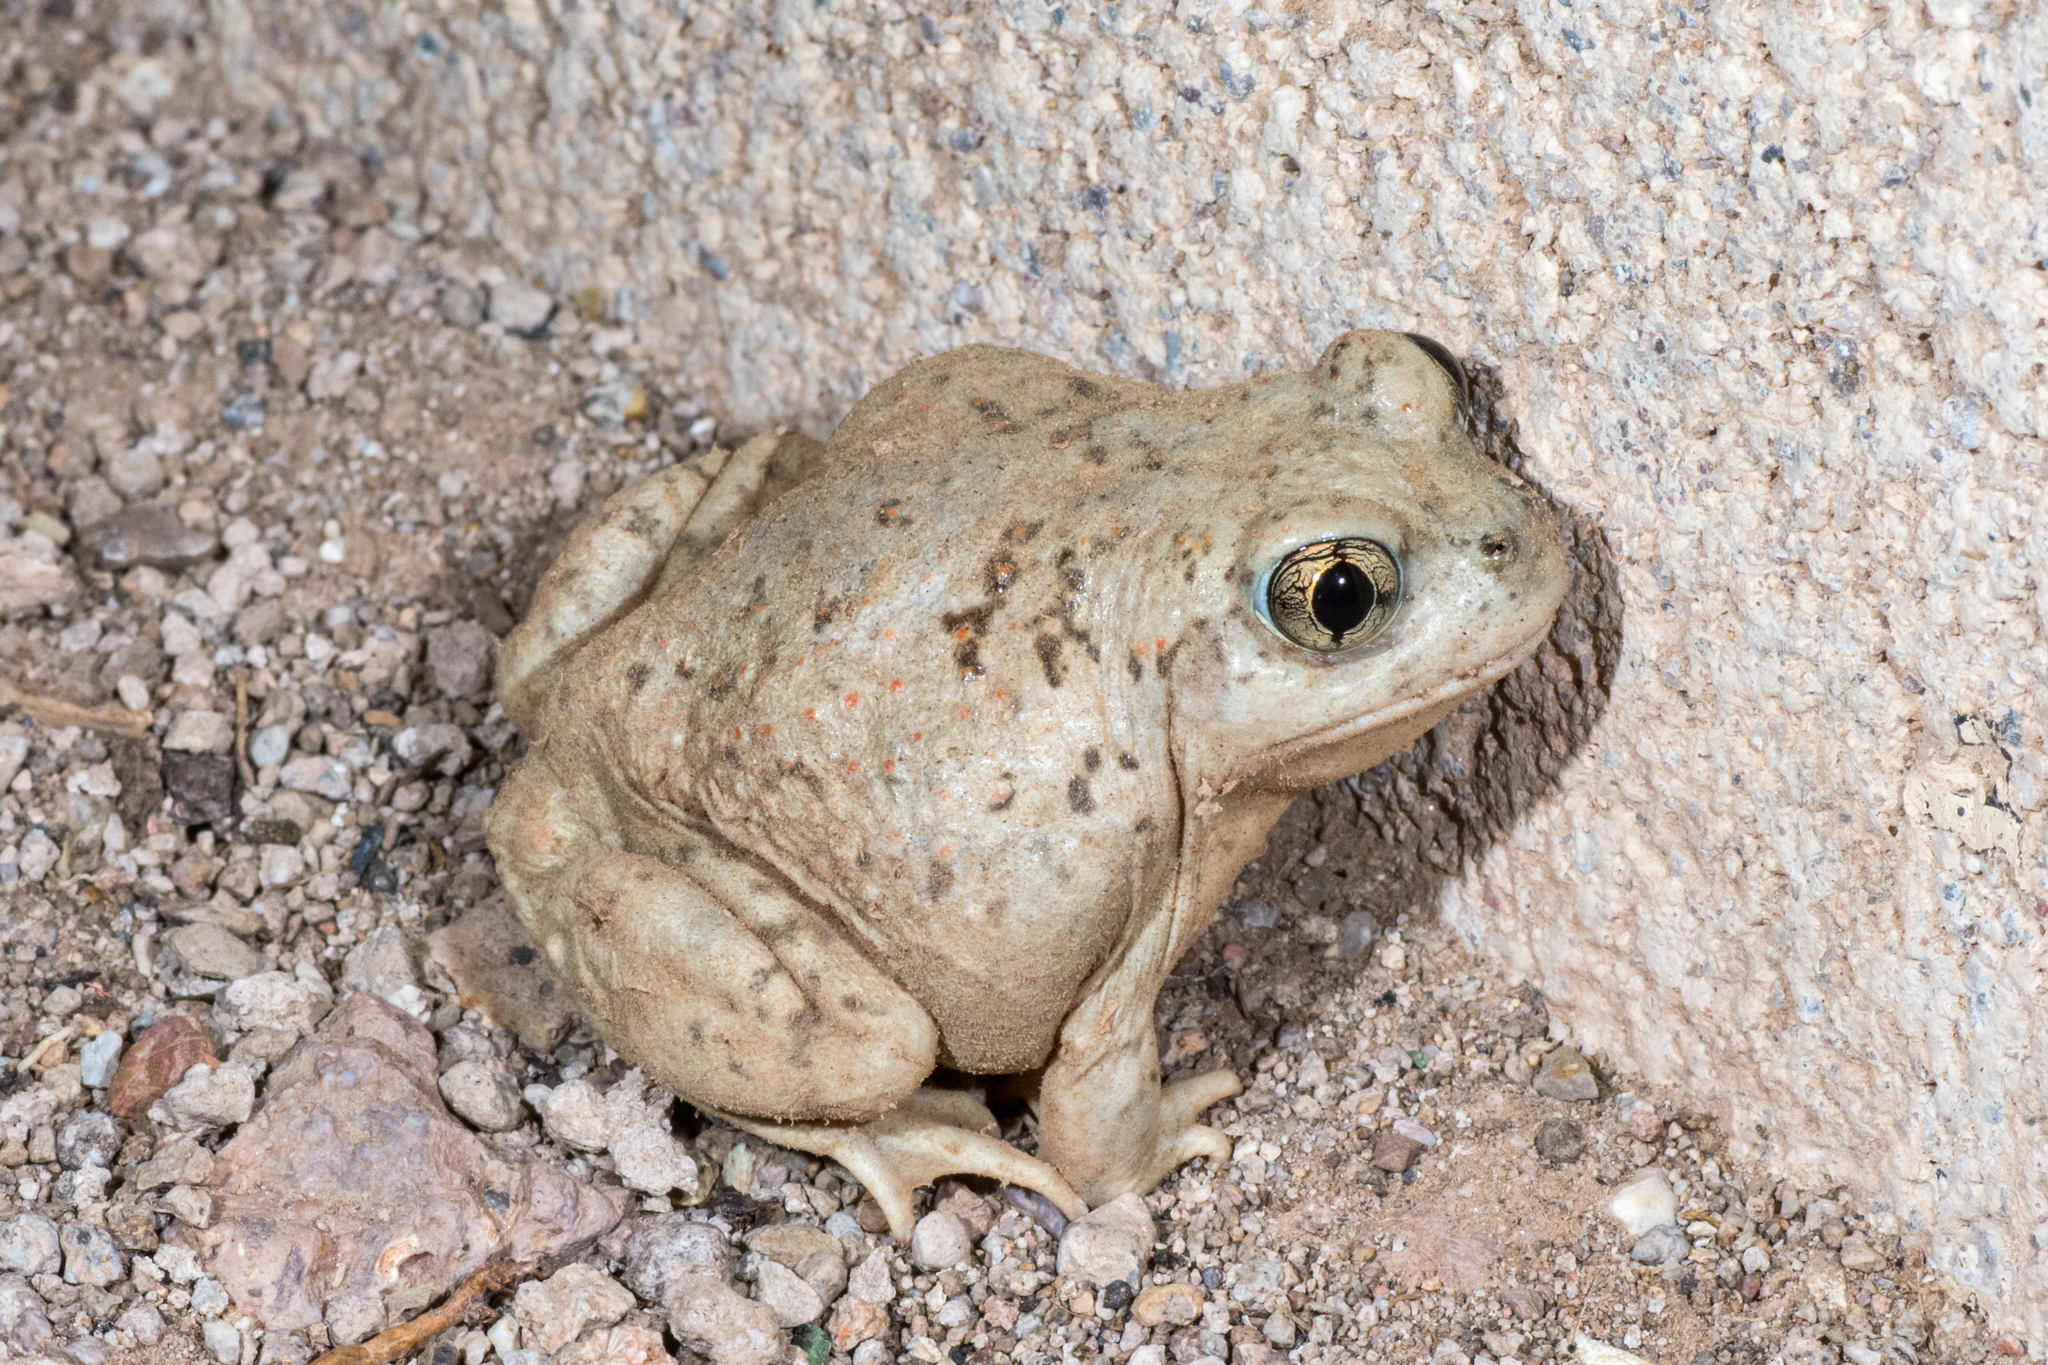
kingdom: Animalia
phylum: Chordata
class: Amphibia
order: Anura
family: Scaphiopodidae
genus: Spea
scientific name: Spea multiplicata
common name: Mexican spadefoot
